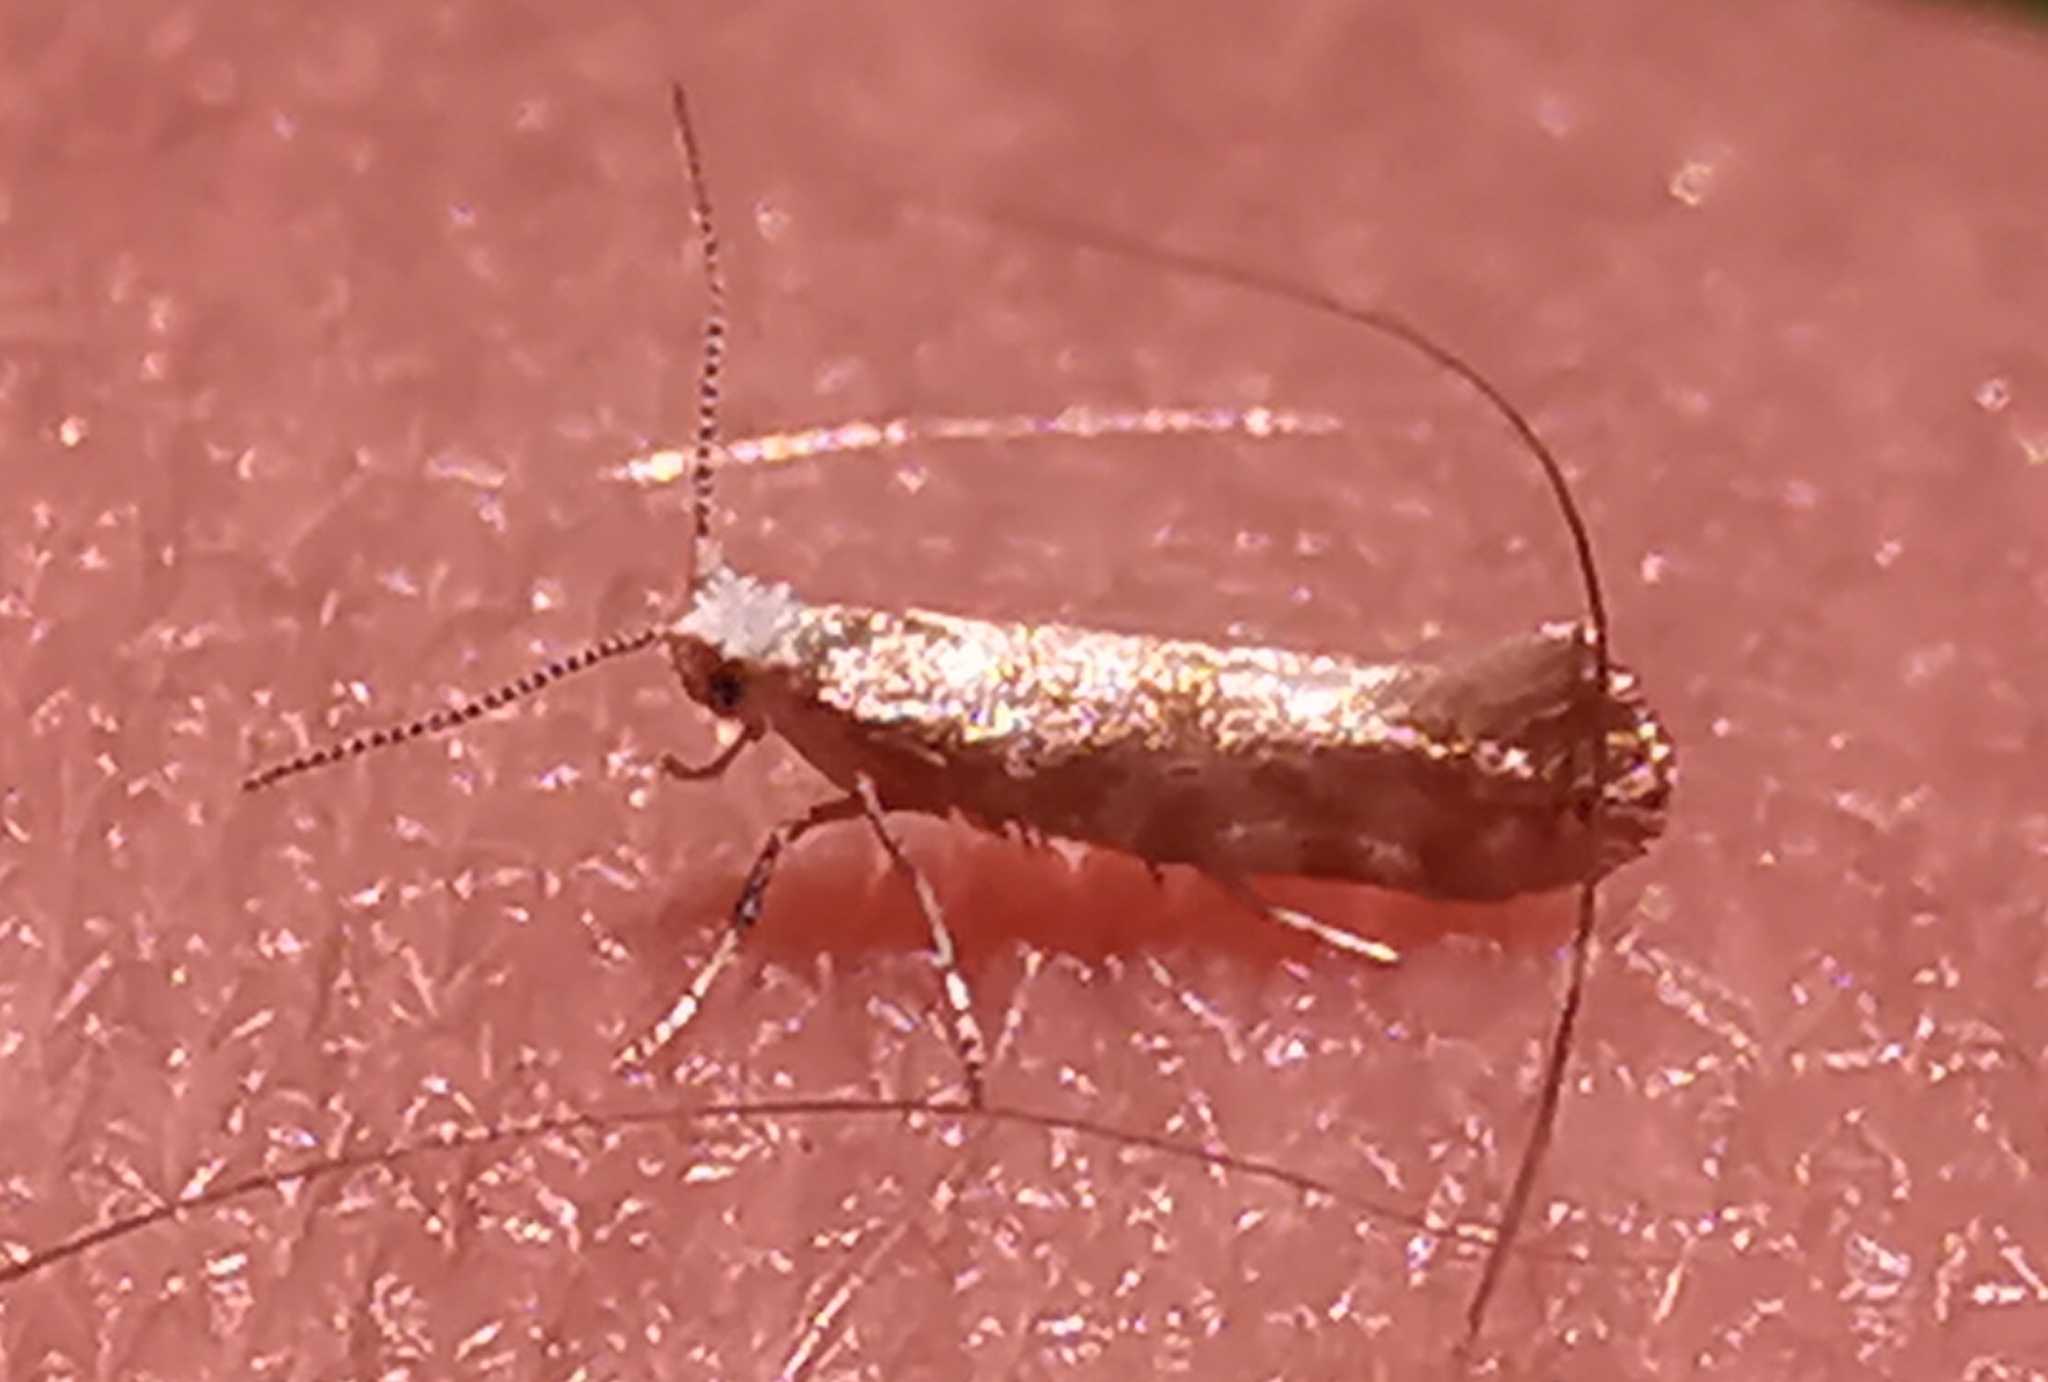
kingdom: Animalia
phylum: Arthropoda
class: Insecta
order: Lepidoptera
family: Argyresthiidae
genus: Argyresthia
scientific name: Argyresthia cupressella
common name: Cypress tip moth
